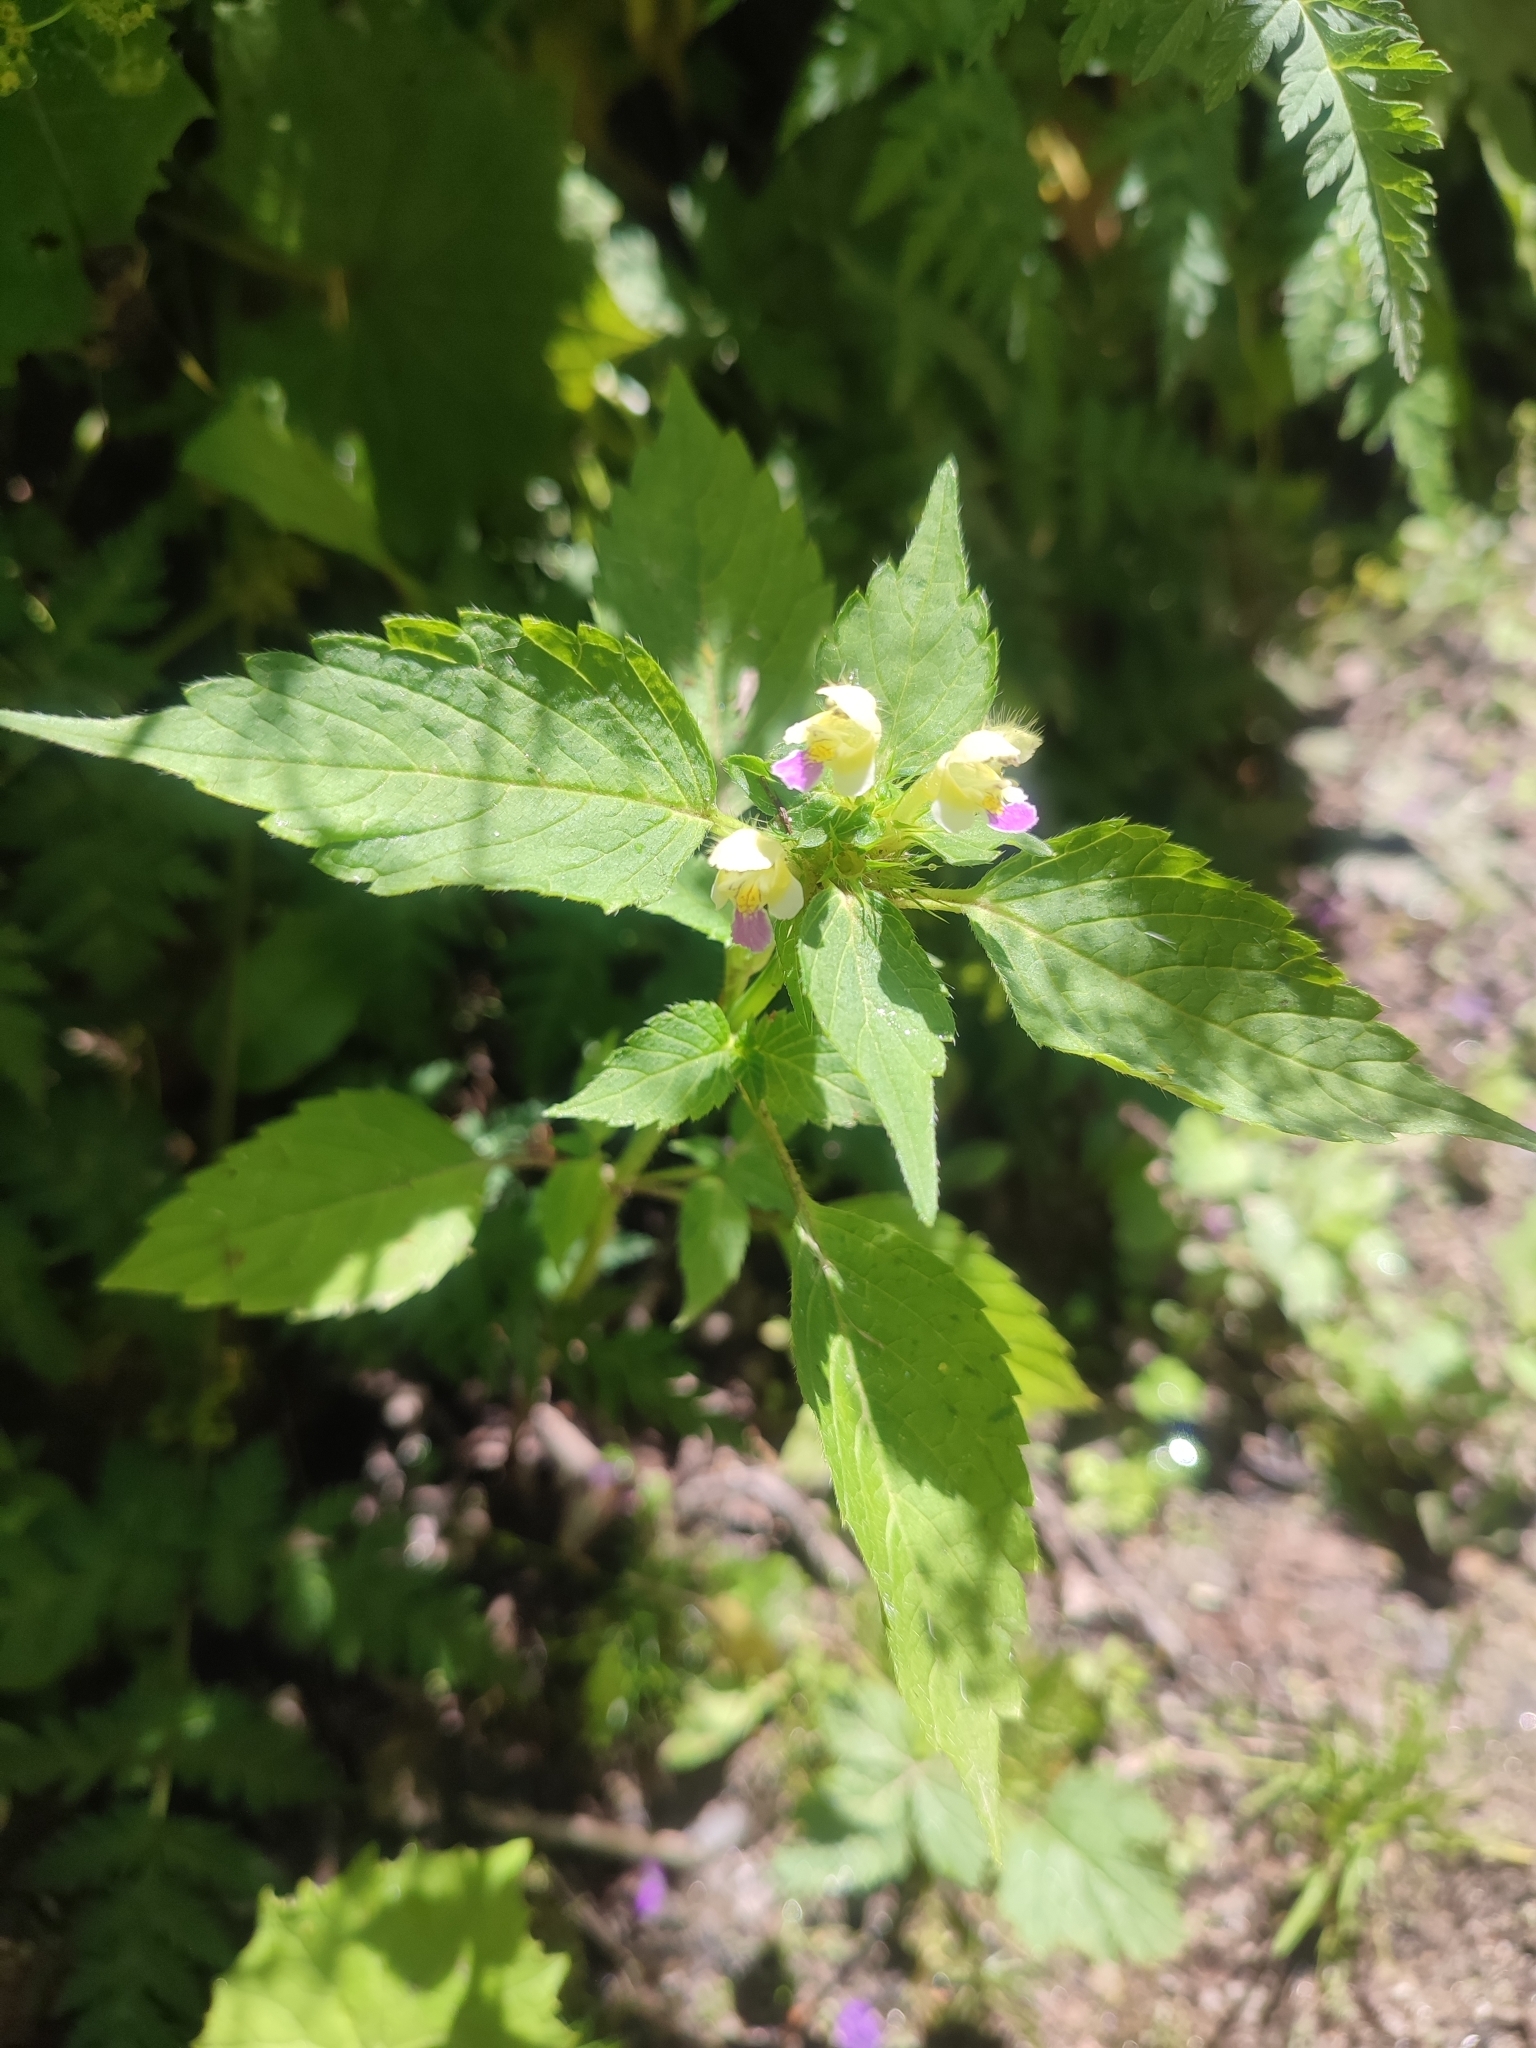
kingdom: Plantae
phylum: Tracheophyta
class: Magnoliopsida
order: Lamiales
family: Lamiaceae
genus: Galeopsis
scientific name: Galeopsis speciosa
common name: Large-flowered hemp-nettle
